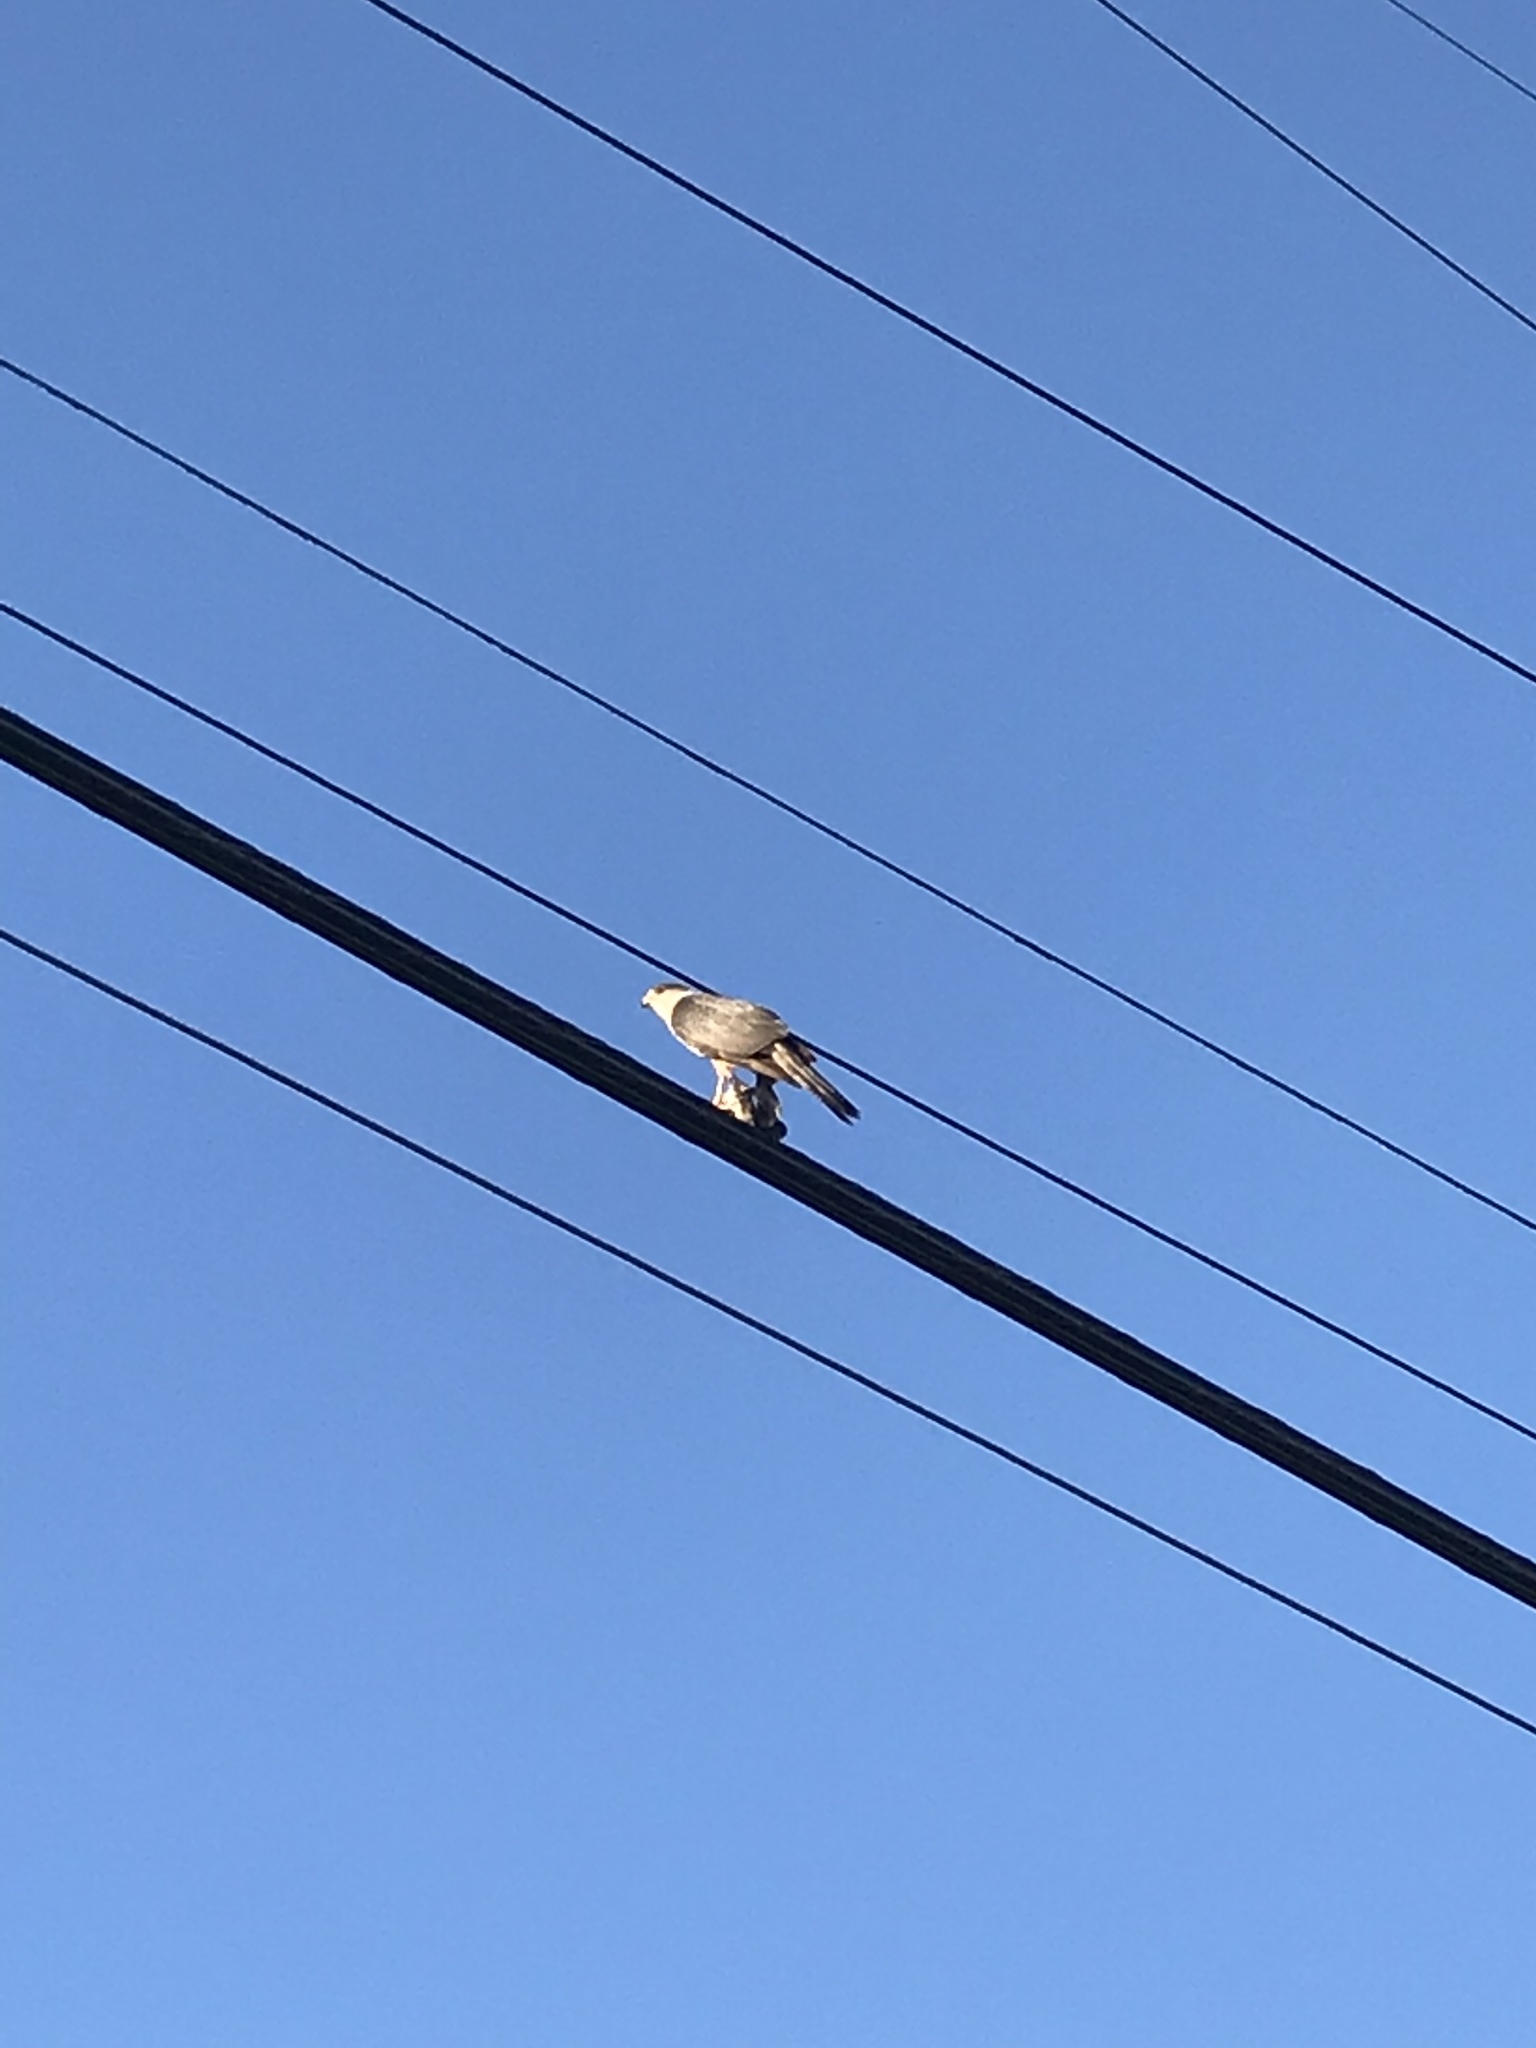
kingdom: Animalia
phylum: Chordata
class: Aves
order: Accipitriformes
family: Accipitridae
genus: Accipiter
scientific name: Accipiter cooperii
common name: Cooper's hawk
